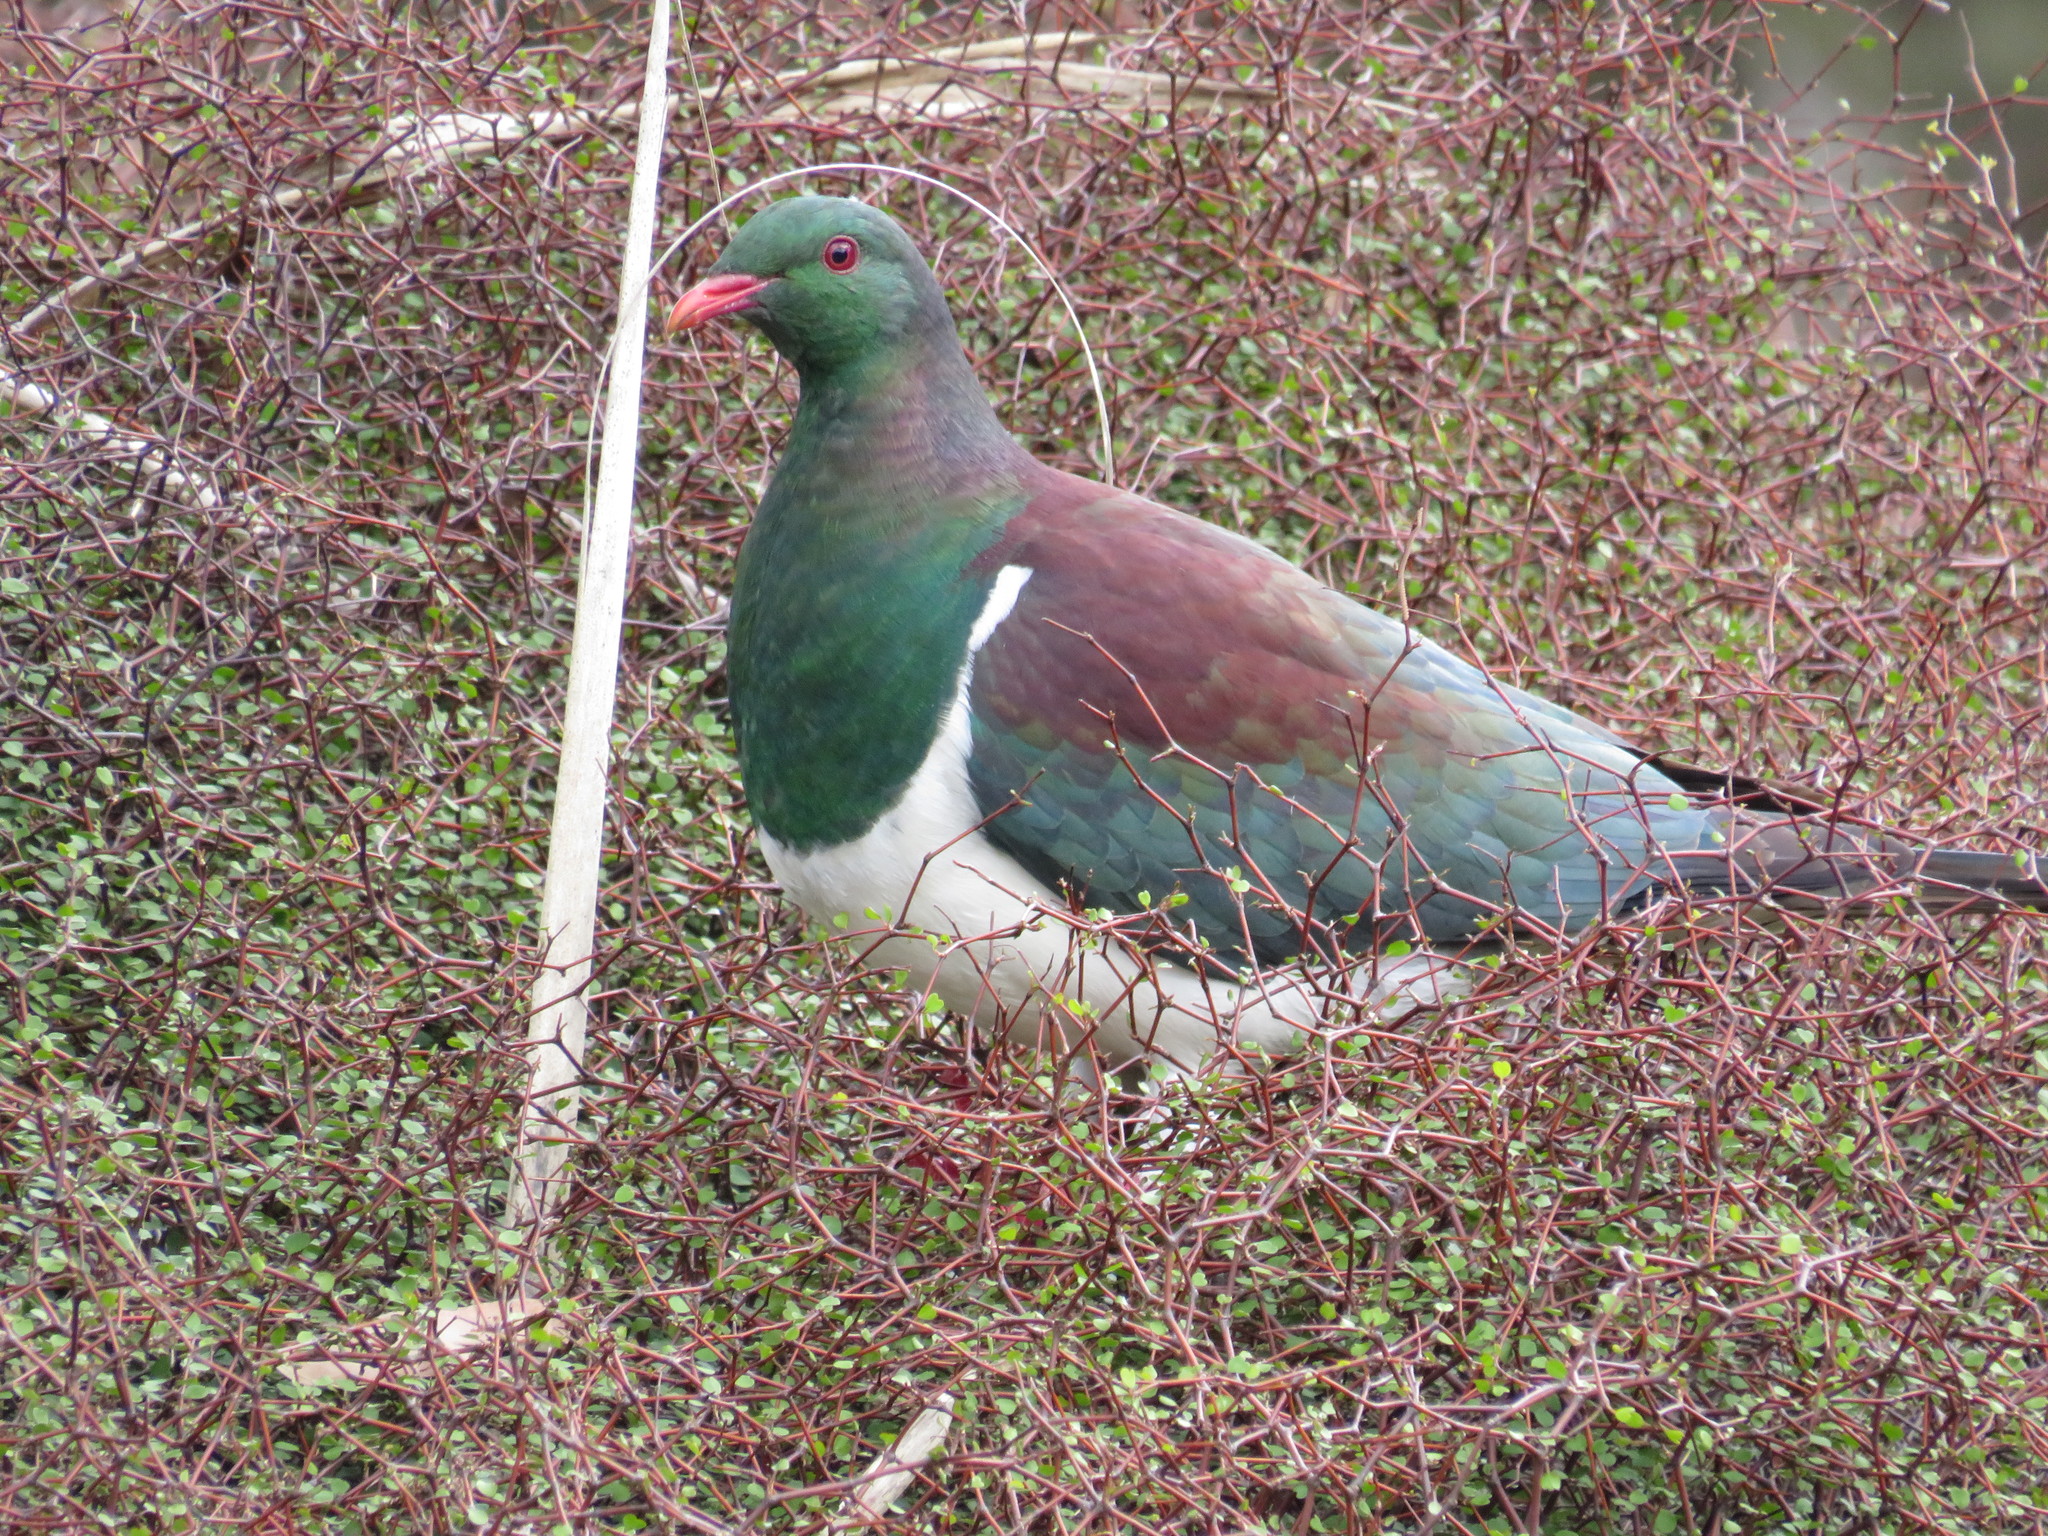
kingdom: Animalia
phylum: Chordata
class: Aves
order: Columbiformes
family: Columbidae
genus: Hemiphaga
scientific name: Hemiphaga novaeseelandiae
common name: New zealand pigeon
